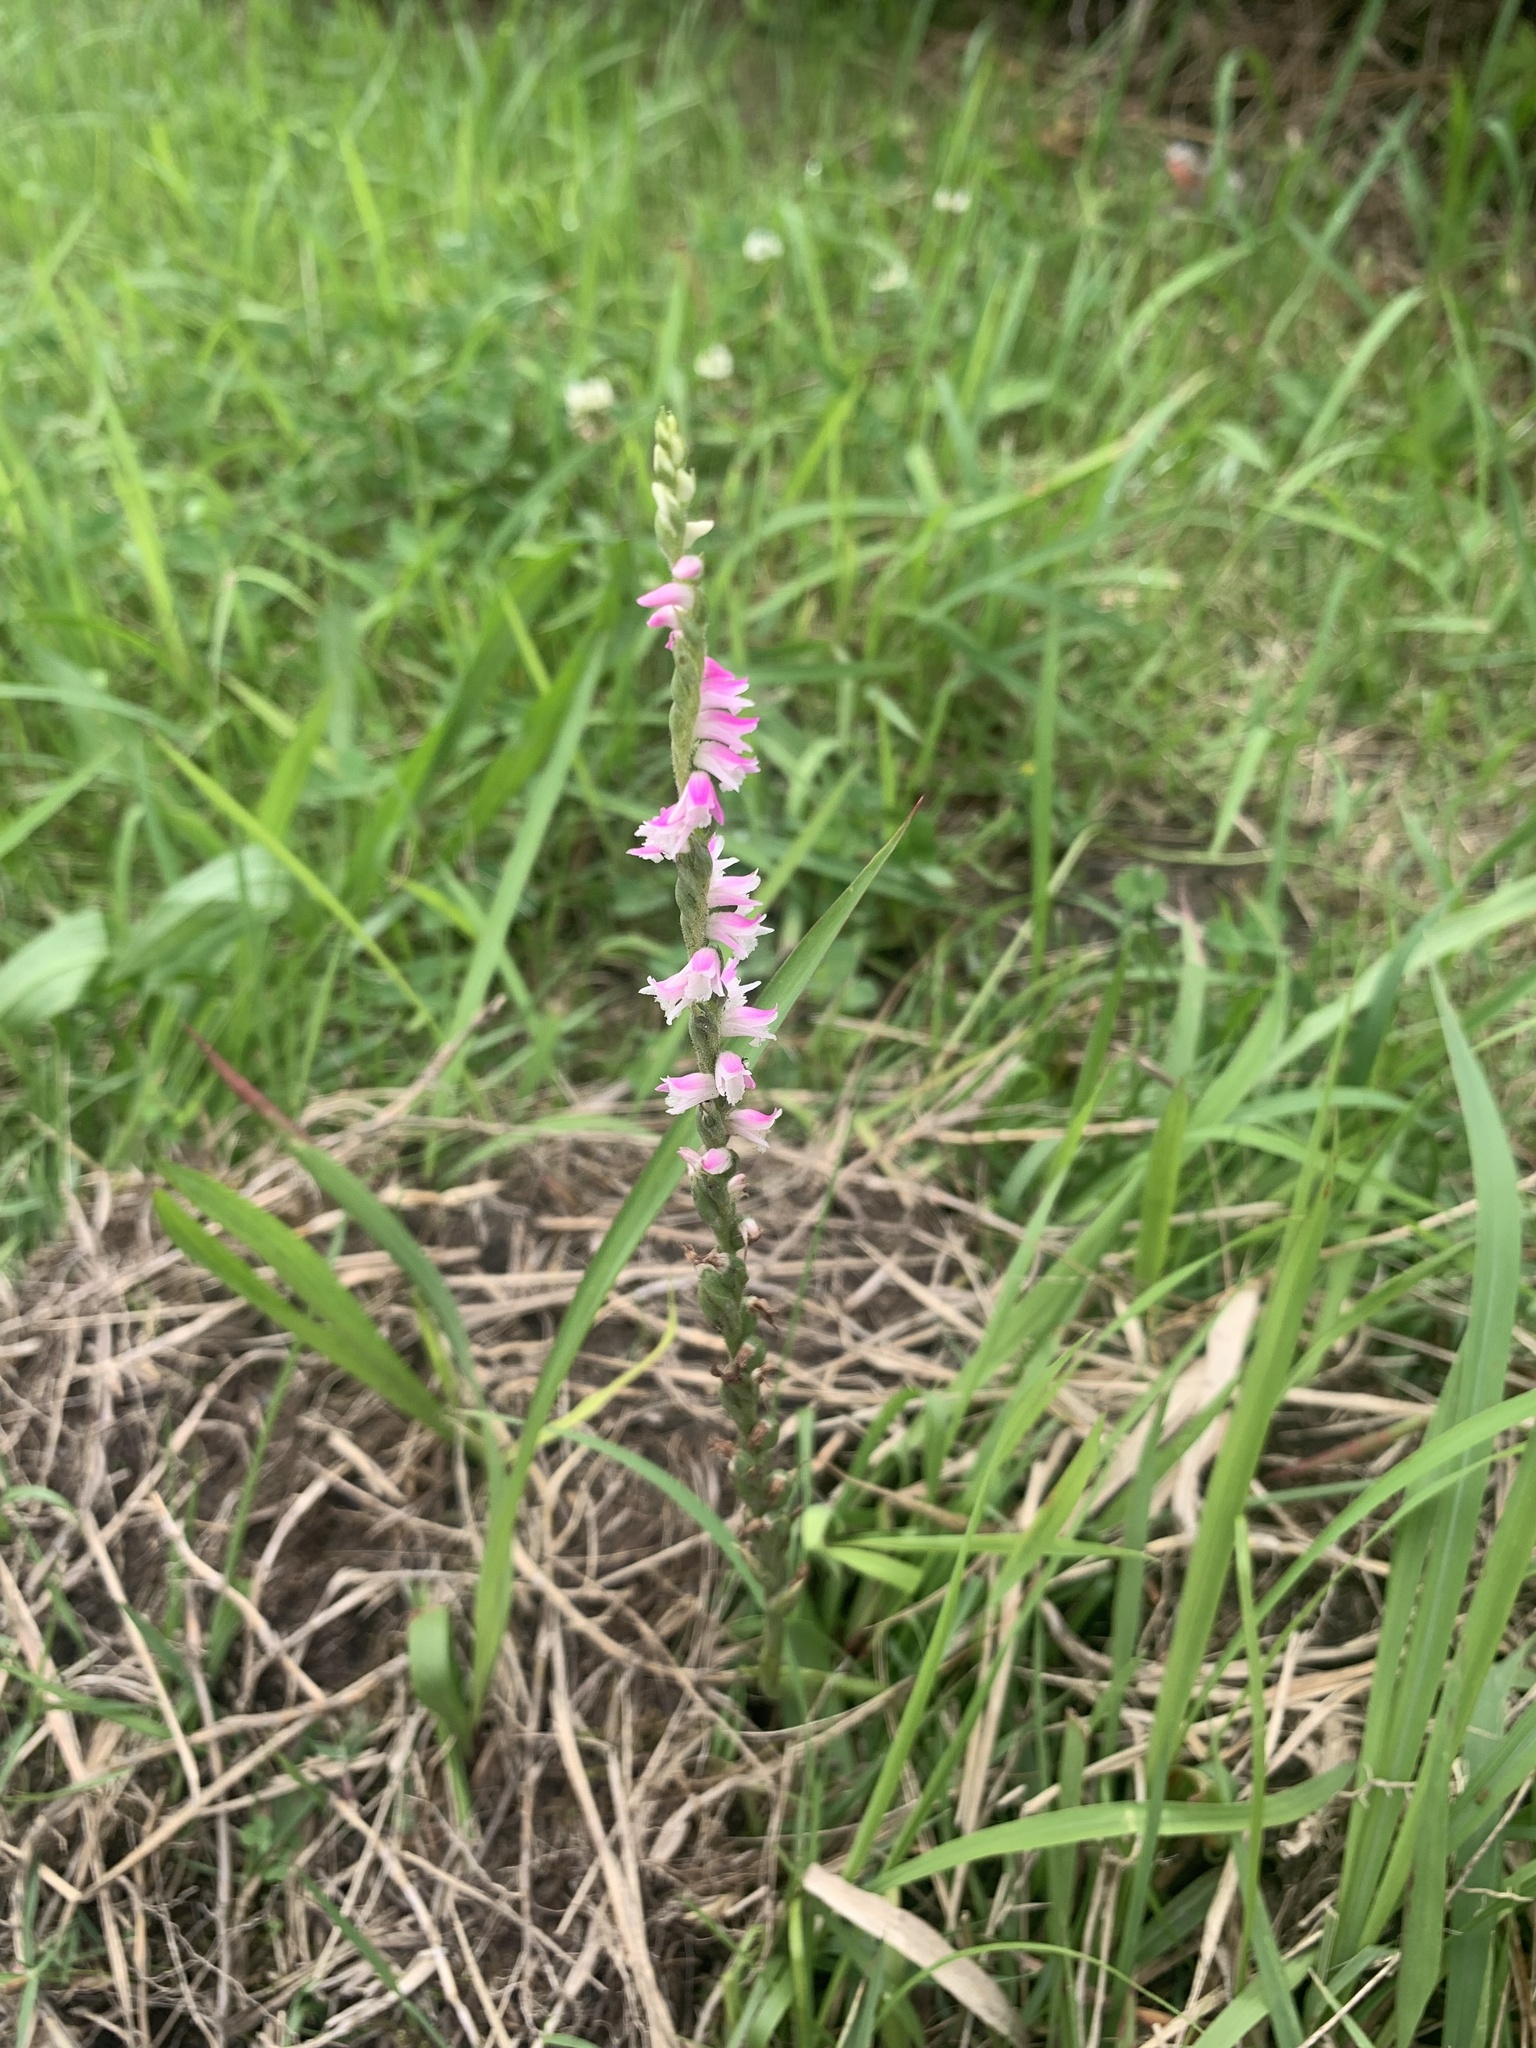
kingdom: Plantae
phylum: Tracheophyta
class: Liliopsida
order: Asparagales
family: Orchidaceae
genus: Spiranthes
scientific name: Spiranthes australis
